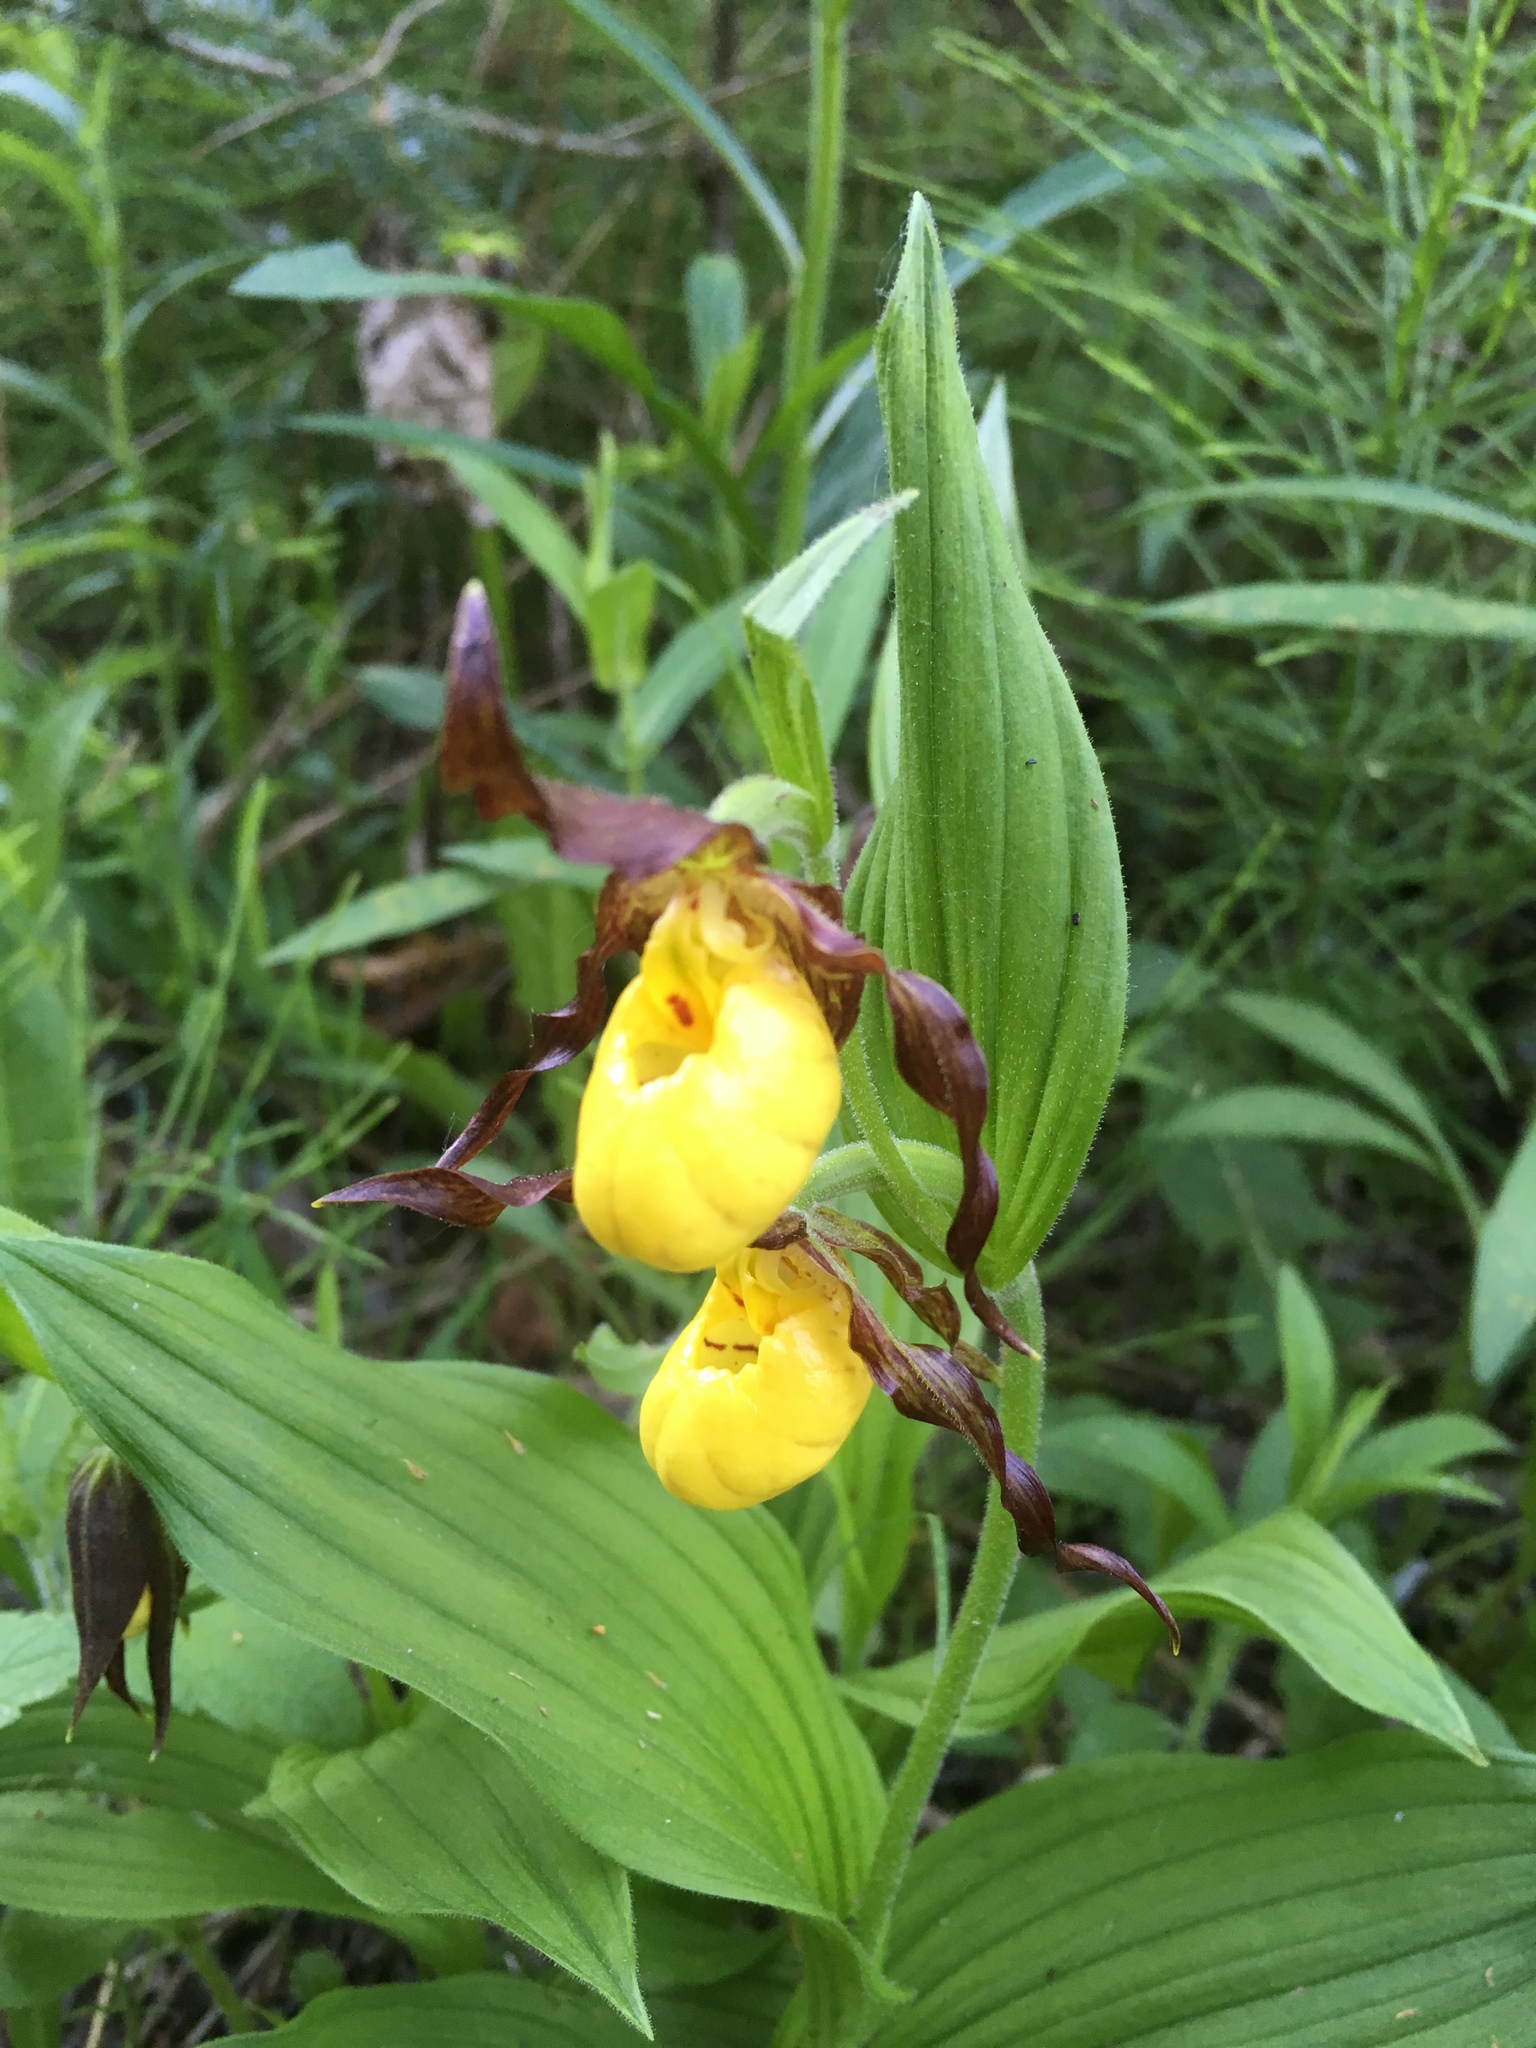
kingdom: Plantae
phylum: Tracheophyta
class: Liliopsida
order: Asparagales
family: Orchidaceae
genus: Cypripedium
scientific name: Cypripedium parviflorum
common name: American yellow lady's-slipper
